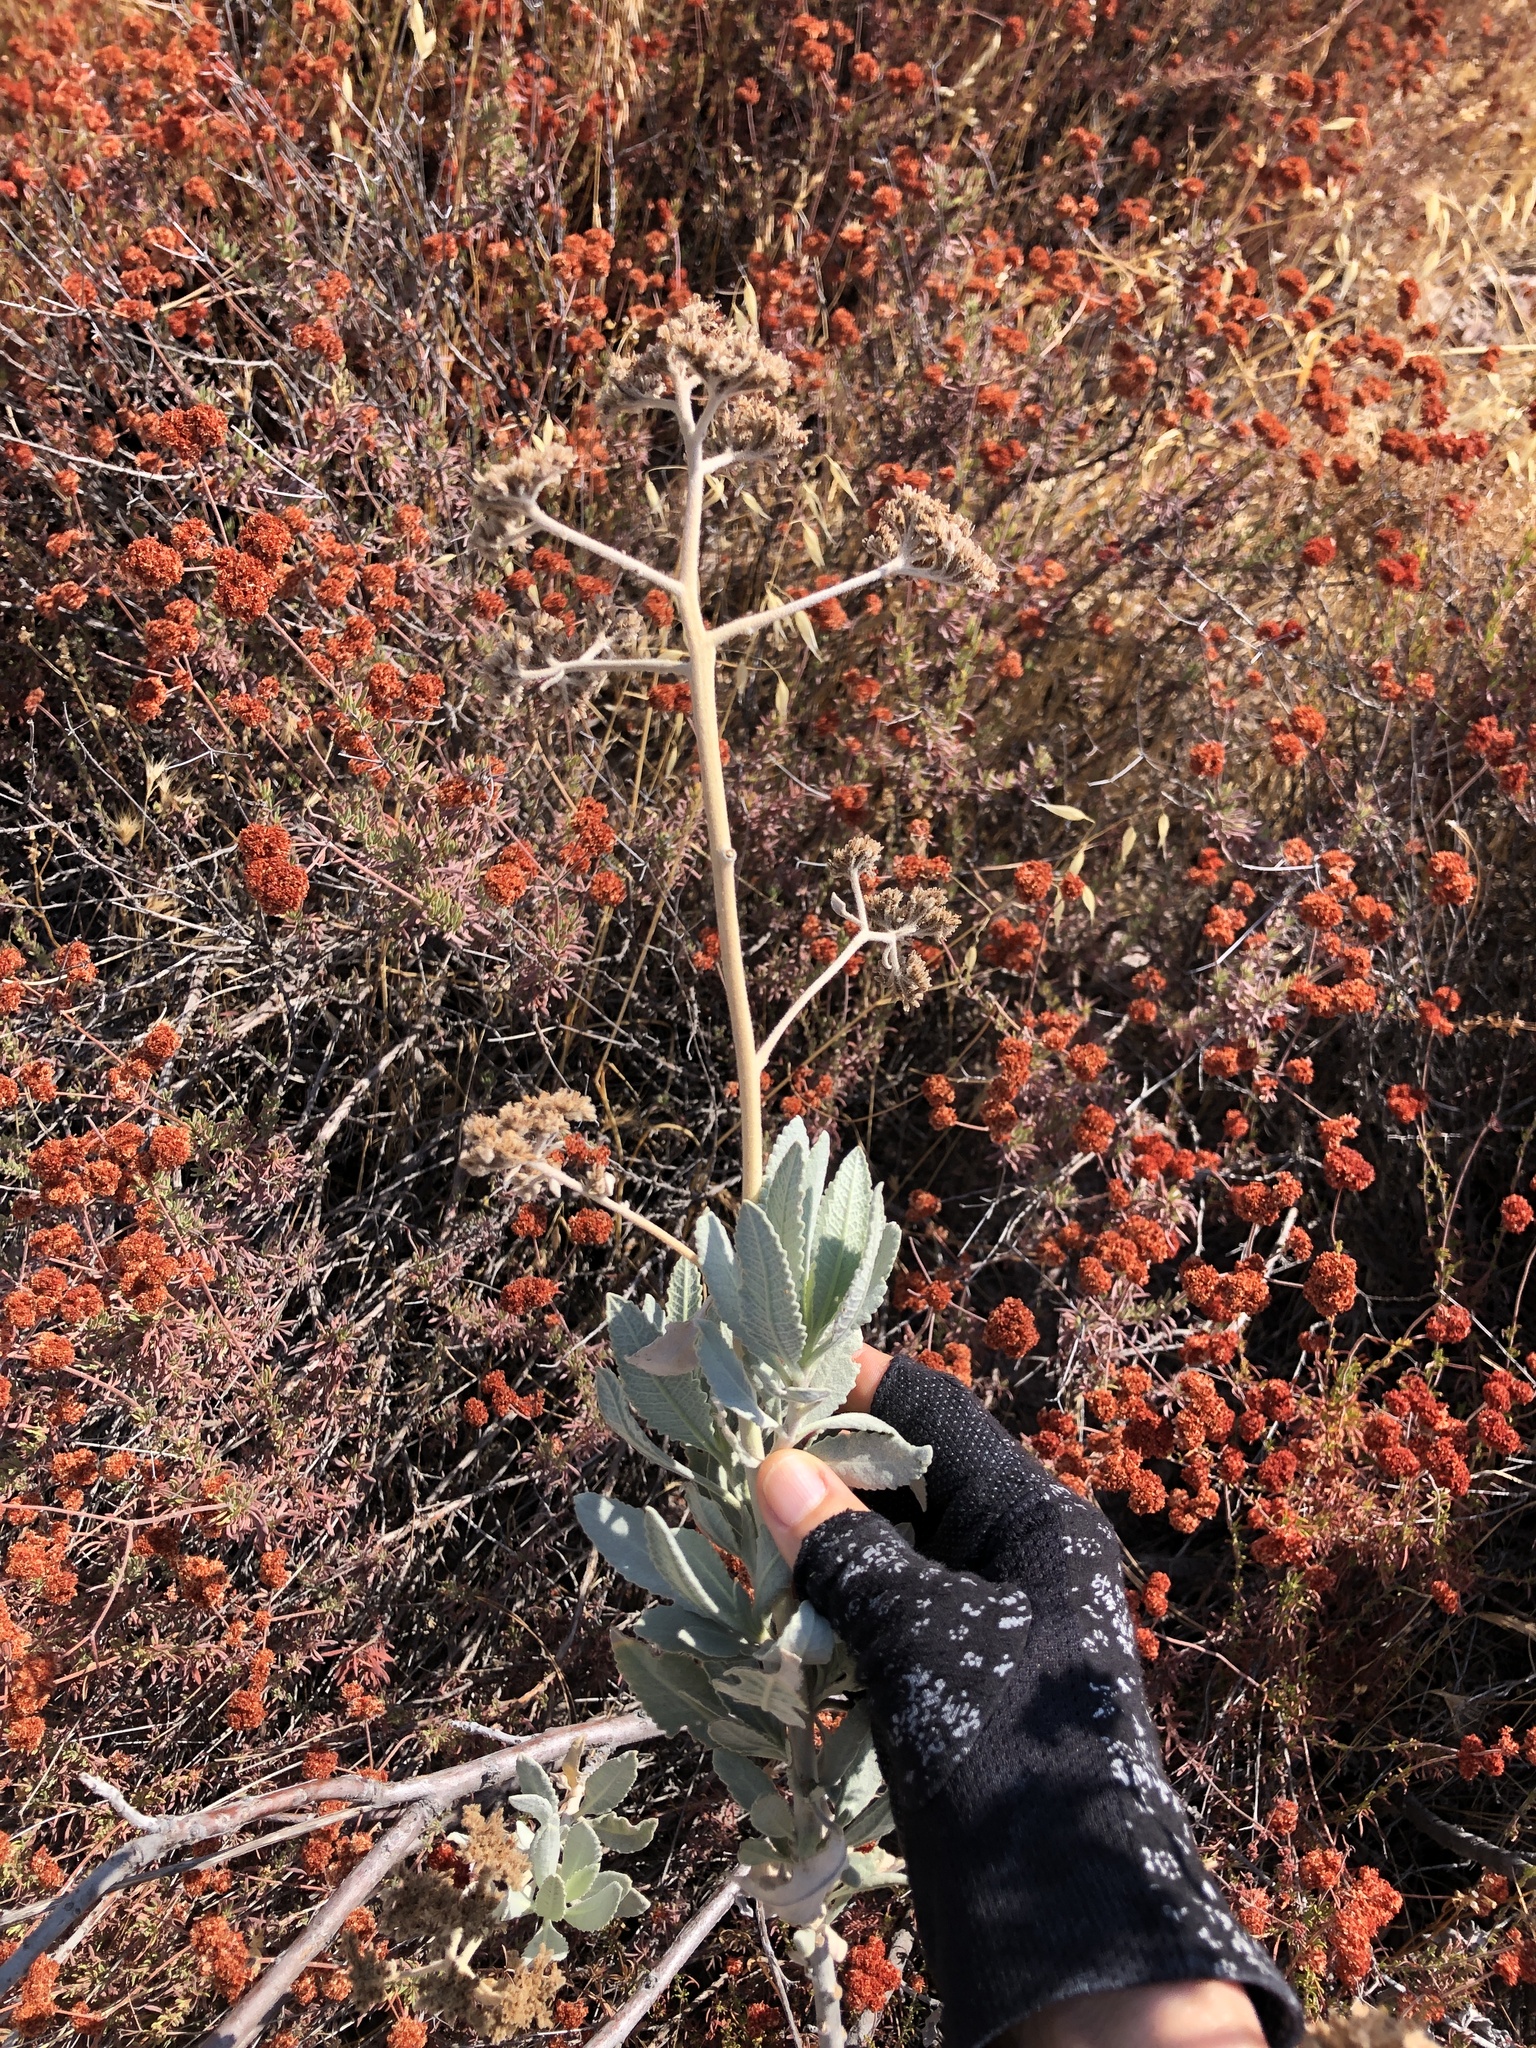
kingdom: Plantae
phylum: Tracheophyta
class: Magnoliopsida
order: Boraginales
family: Namaceae
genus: Eriodictyon
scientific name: Eriodictyon tomentosum
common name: Woolly yerba-santa
